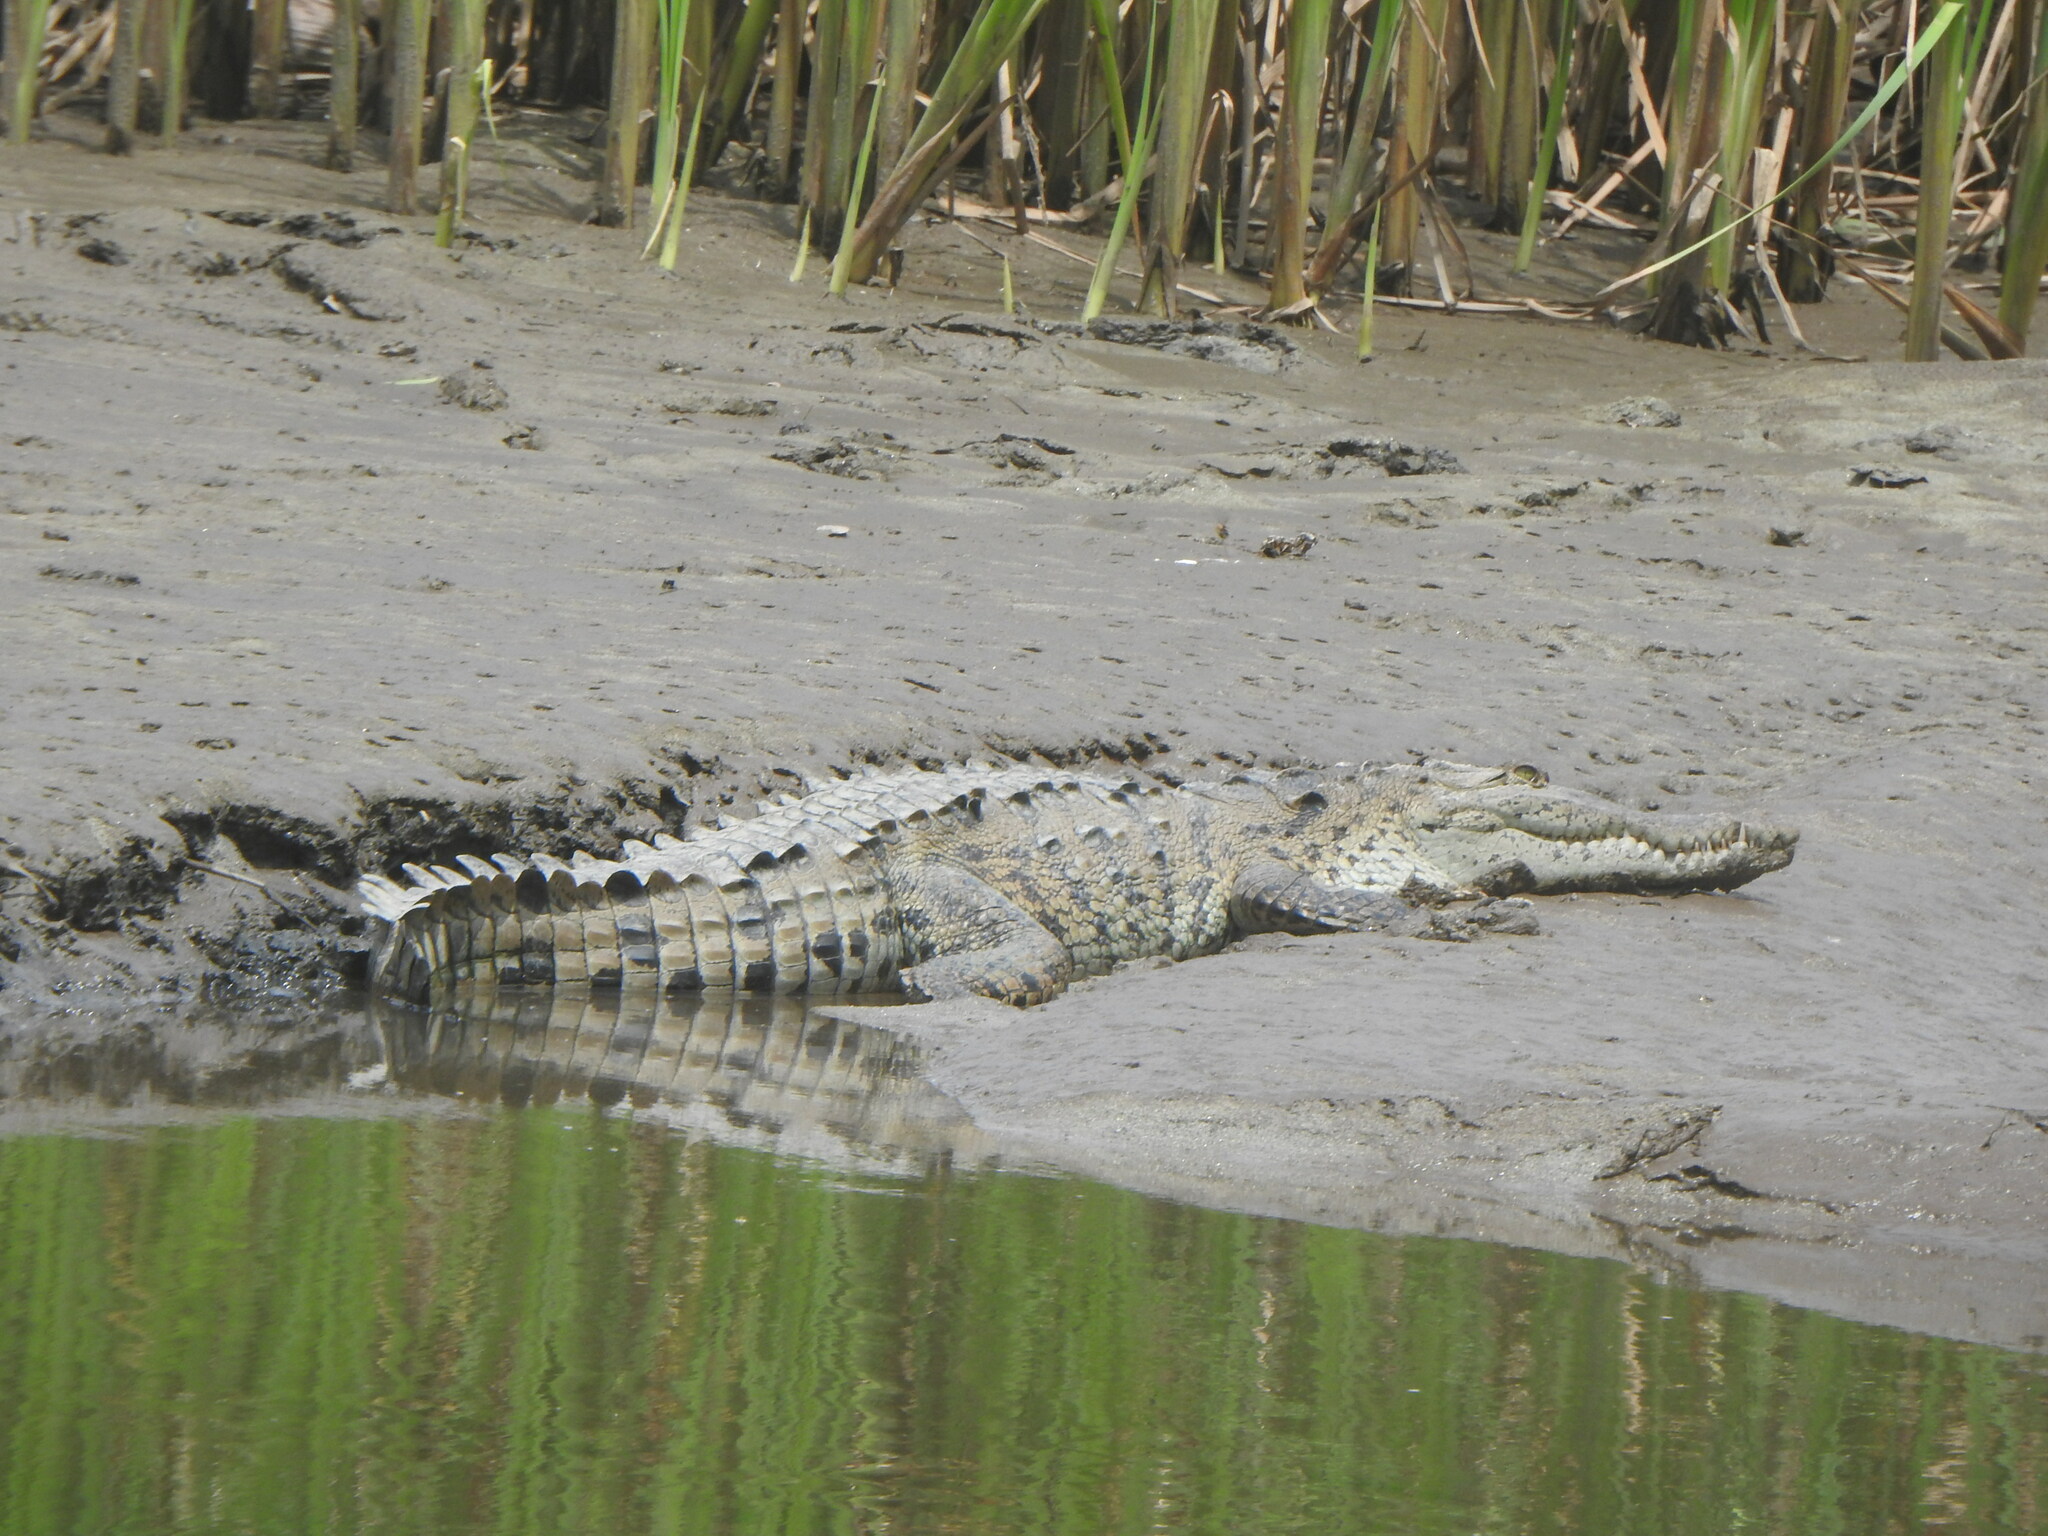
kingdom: Animalia
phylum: Chordata
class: Crocodylia
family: Crocodylidae
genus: Crocodylus
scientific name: Crocodylus acutus
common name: American crocodile
